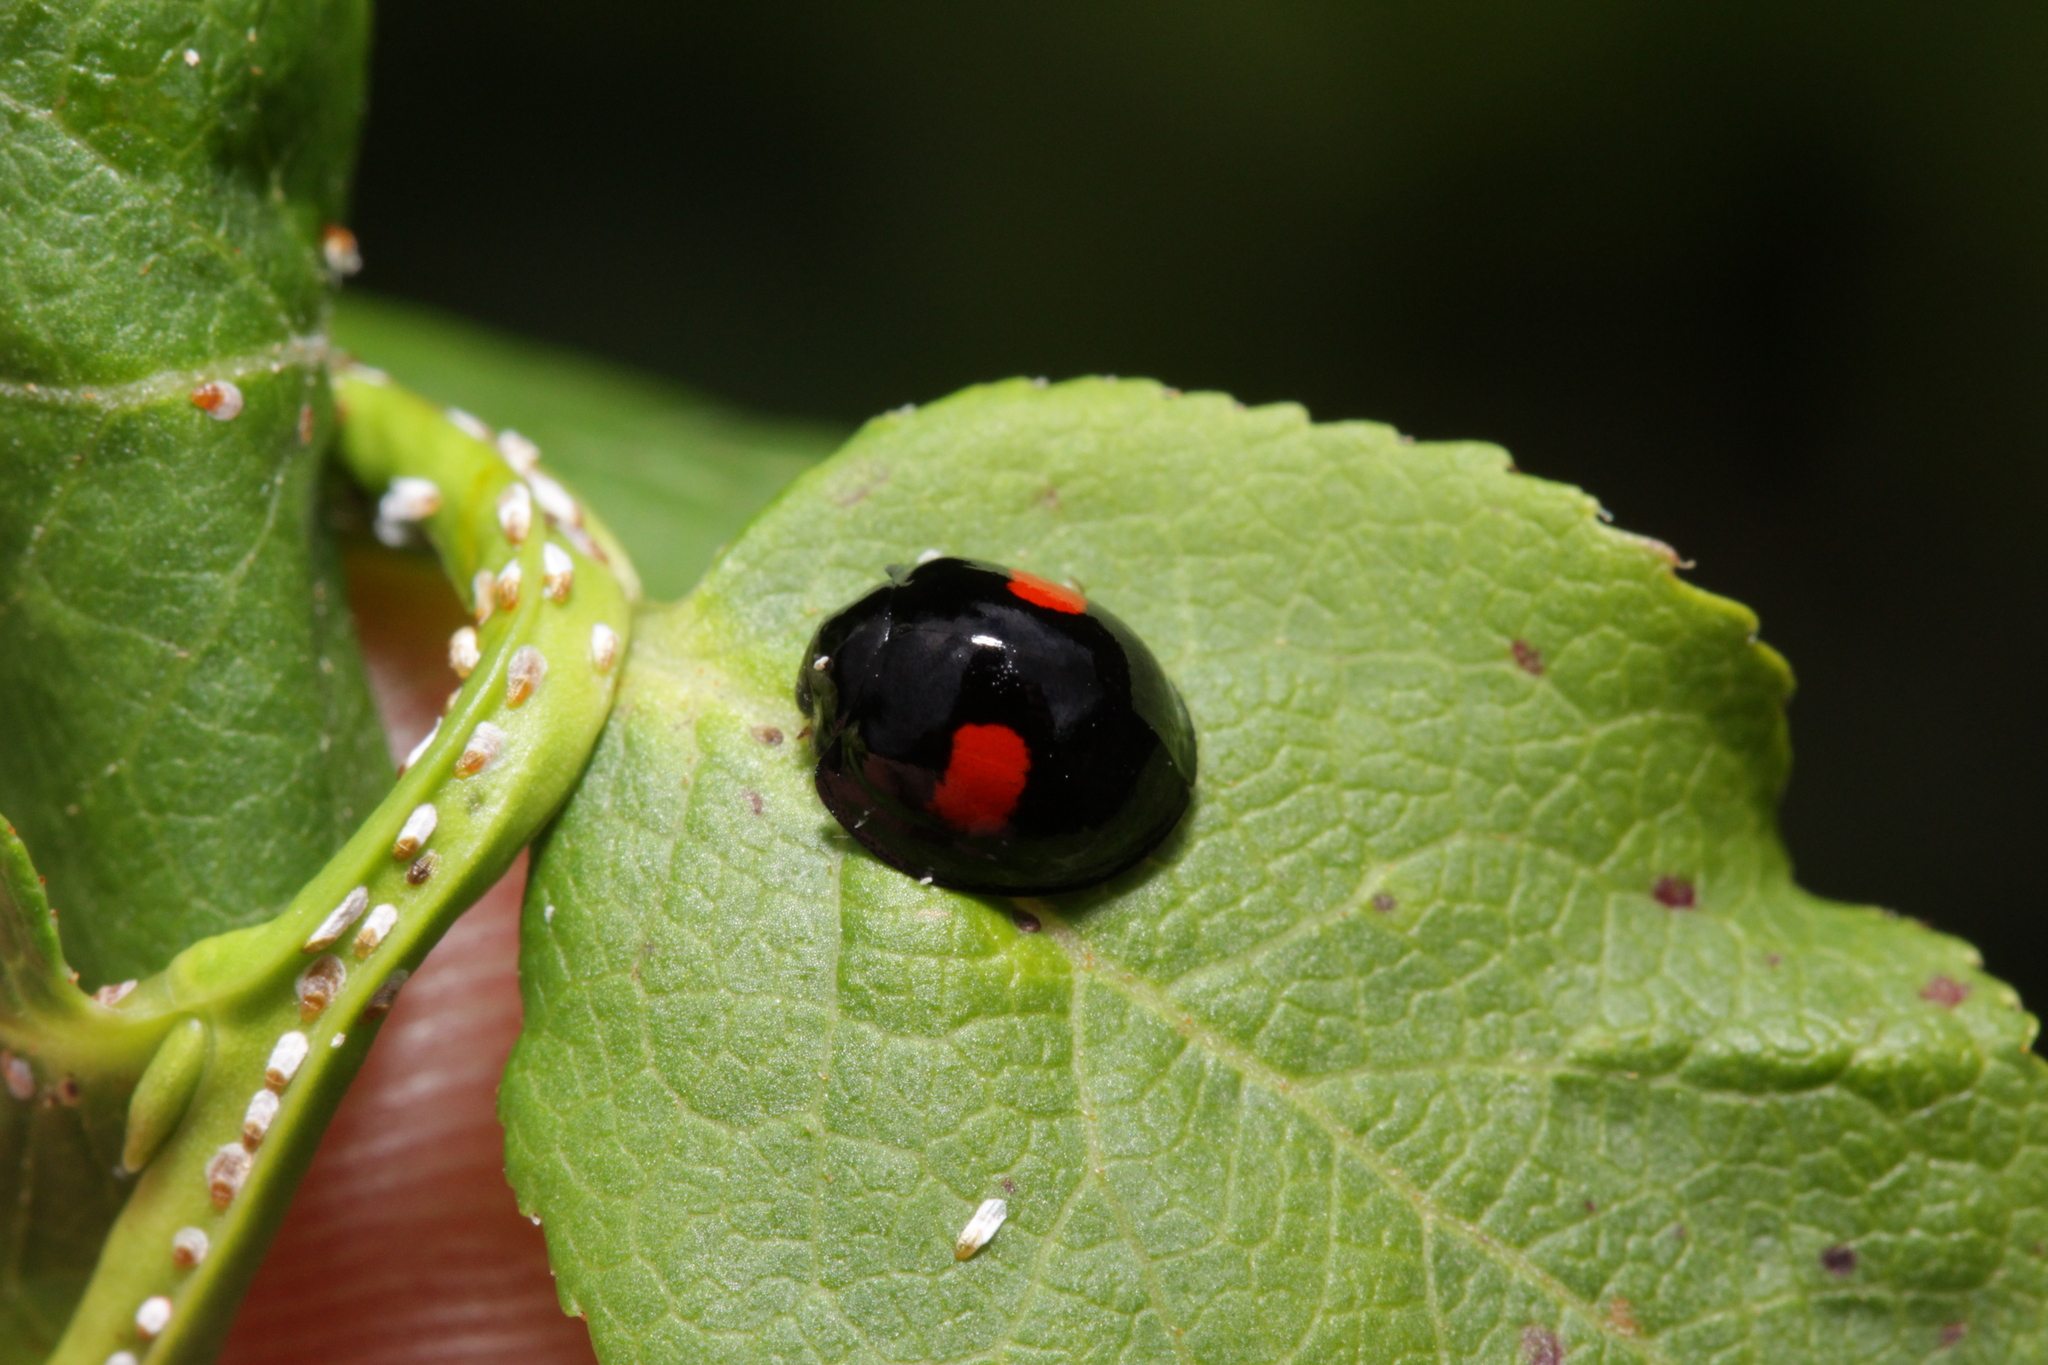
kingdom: Animalia
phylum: Arthropoda
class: Insecta
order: Coleoptera
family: Coccinellidae
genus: Chilocorus
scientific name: Chilocorus renipustulatus
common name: Kidney-spot ladybird
